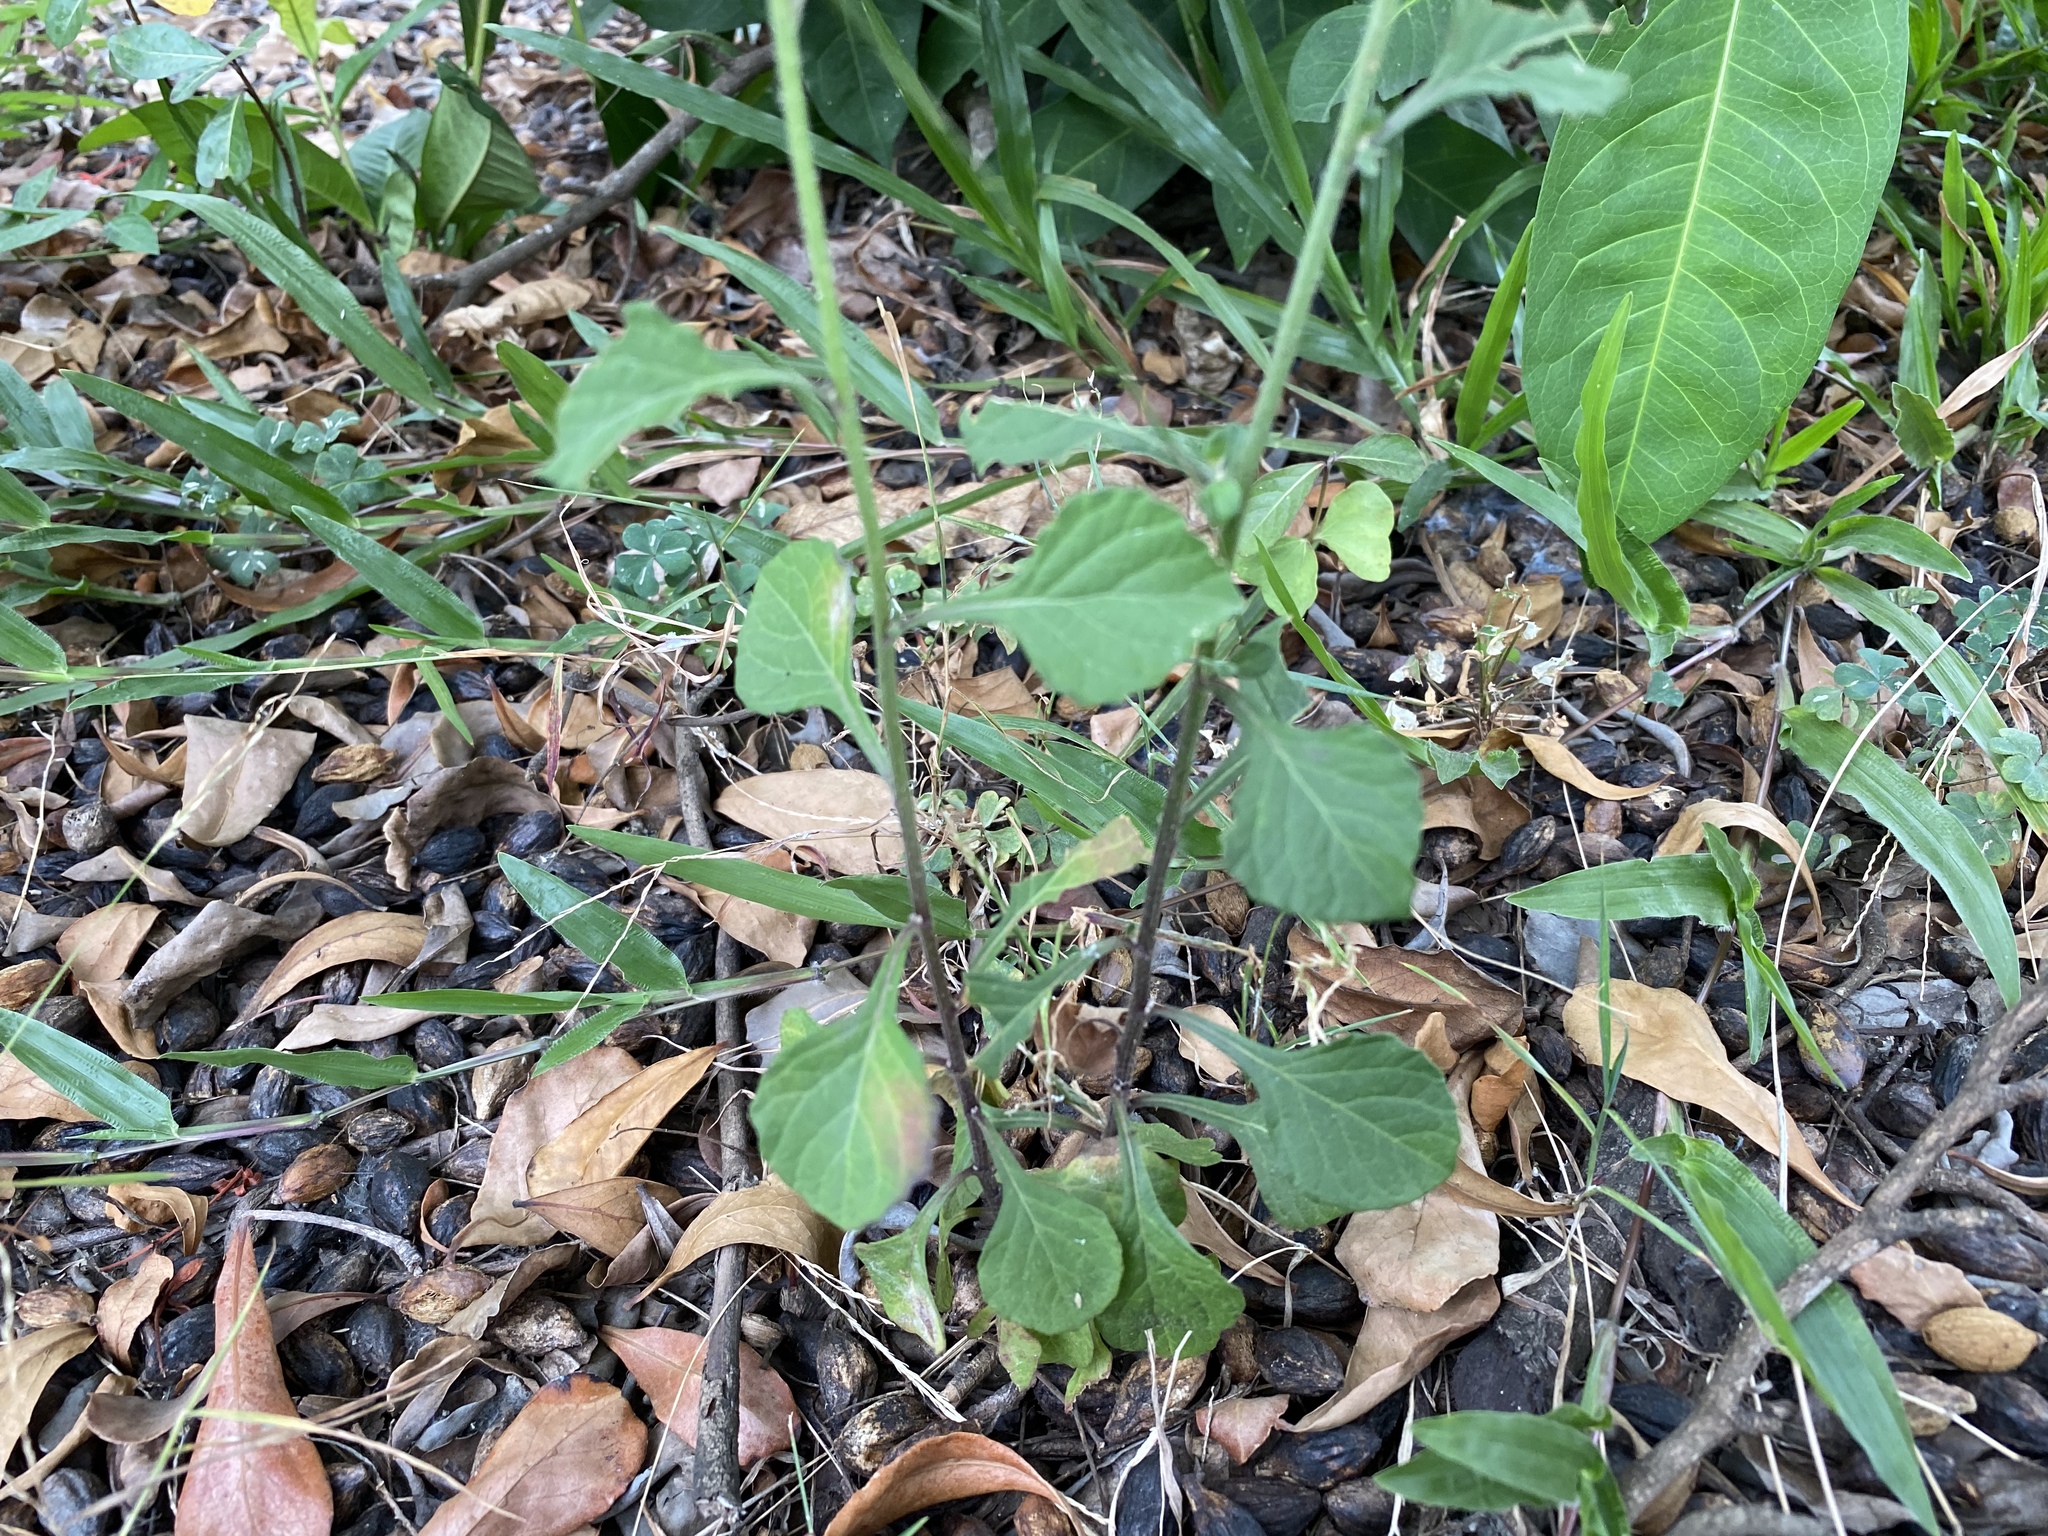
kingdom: Plantae
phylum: Tracheophyta
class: Magnoliopsida
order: Asterales
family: Asteraceae
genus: Cyanthillium
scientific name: Cyanthillium cinereum
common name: Little ironweed
